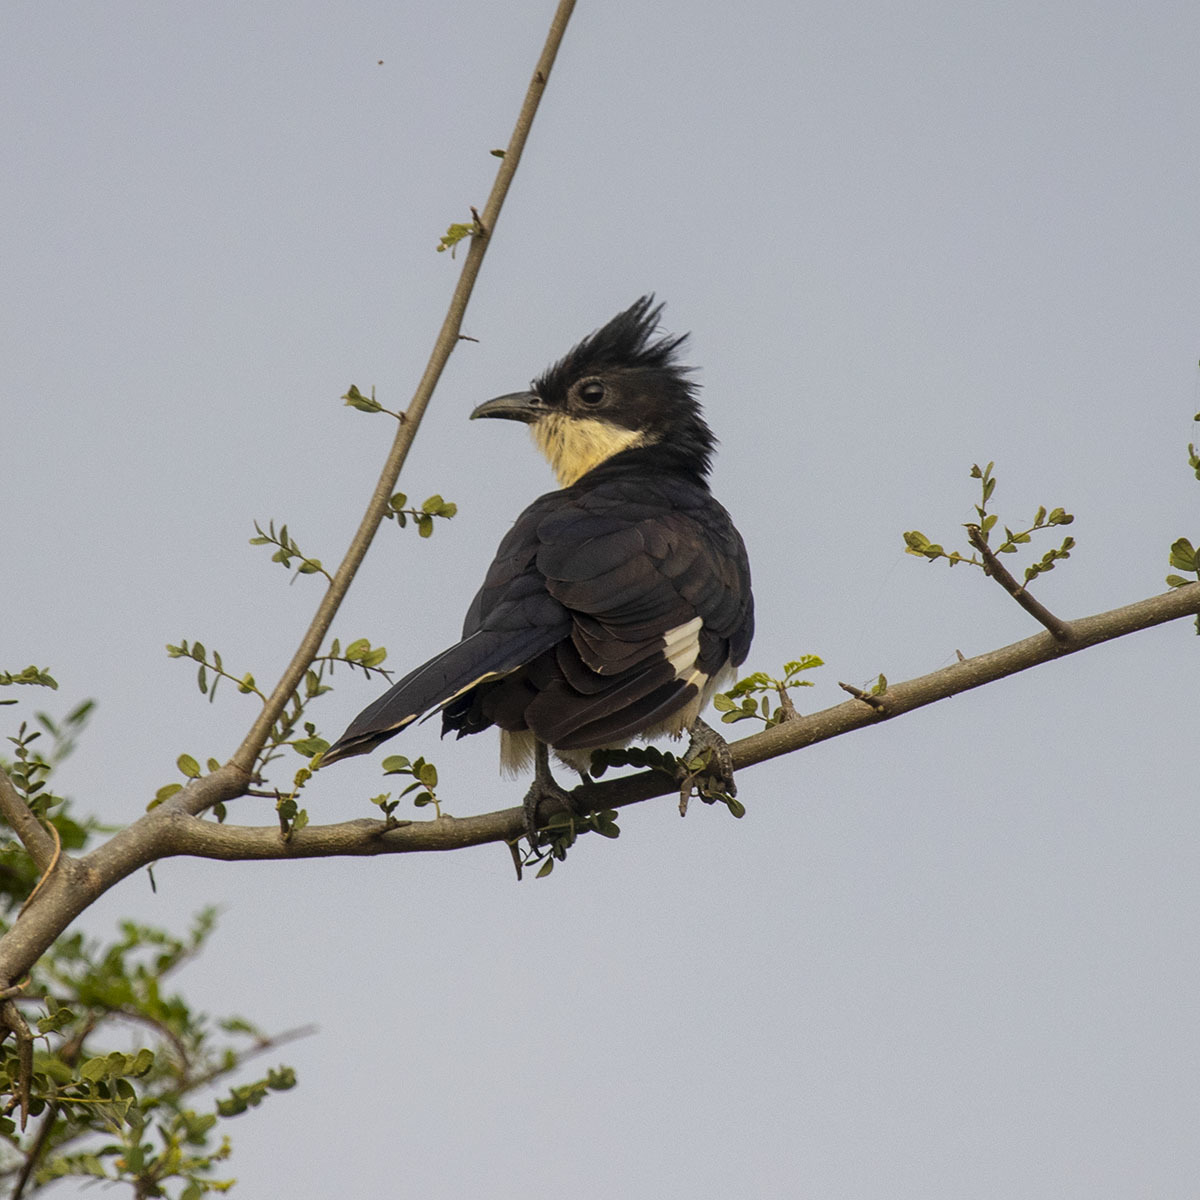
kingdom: Animalia
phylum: Chordata
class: Aves
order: Cuculiformes
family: Cuculidae
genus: Clamator
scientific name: Clamator jacobinus
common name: Jacobin cuckoo
